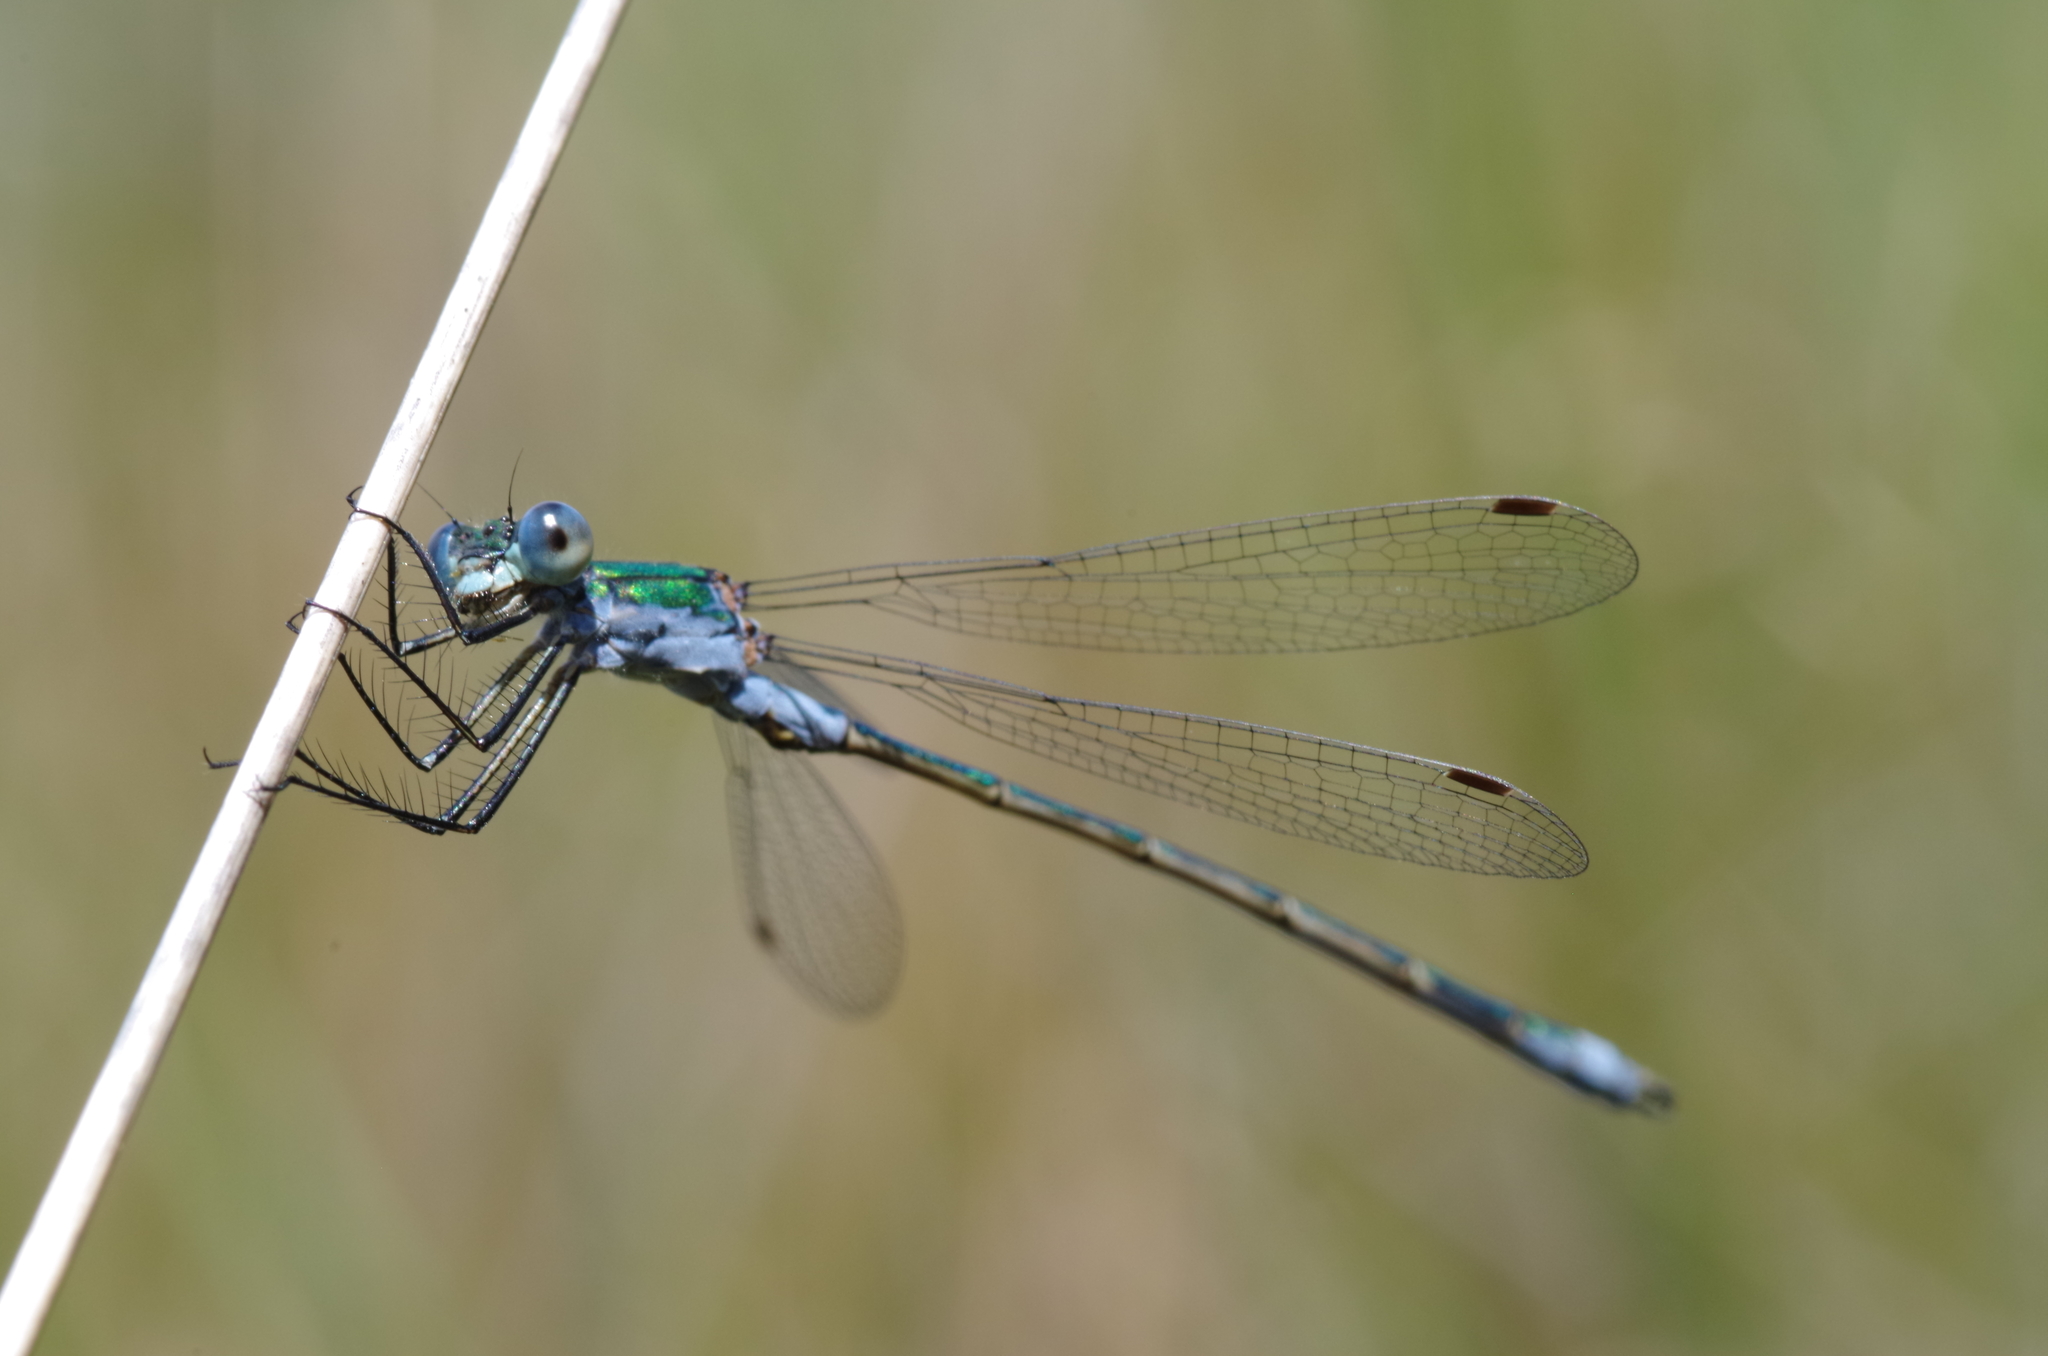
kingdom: Animalia
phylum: Arthropoda
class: Insecta
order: Odonata
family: Lestidae
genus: Lestes
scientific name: Lestes sponsa
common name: Common spreadwing
